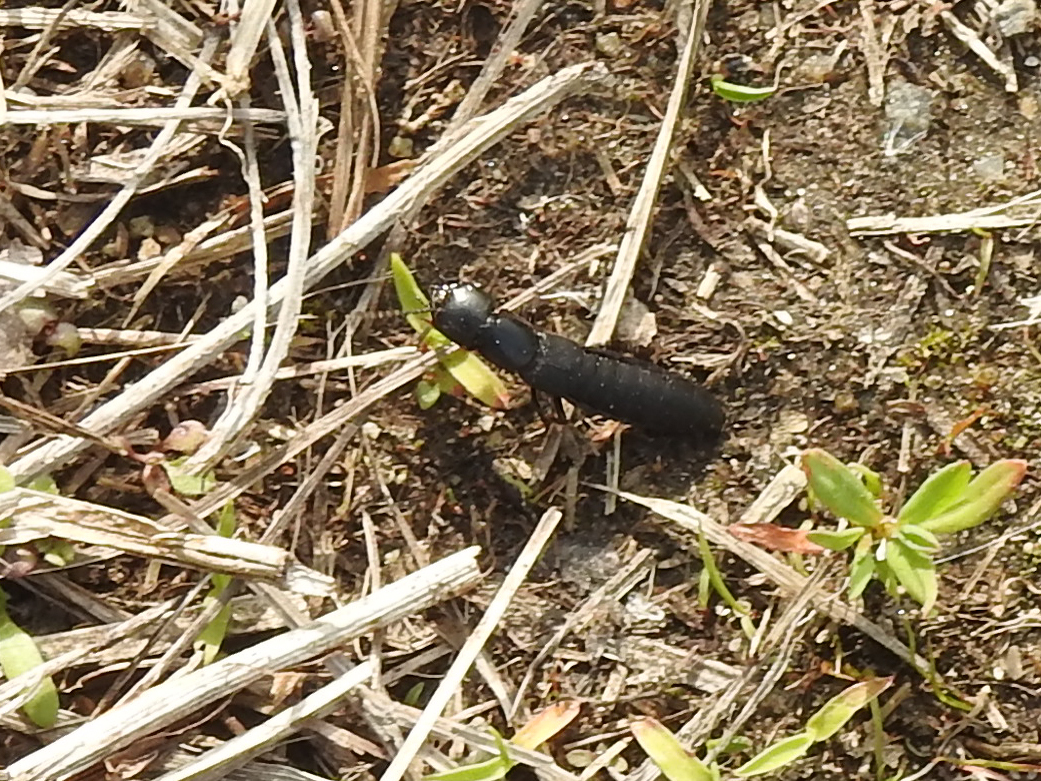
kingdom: Animalia
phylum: Arthropoda
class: Insecta
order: Coleoptera
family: Staphylinidae
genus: Ocypus
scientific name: Ocypus nitens
